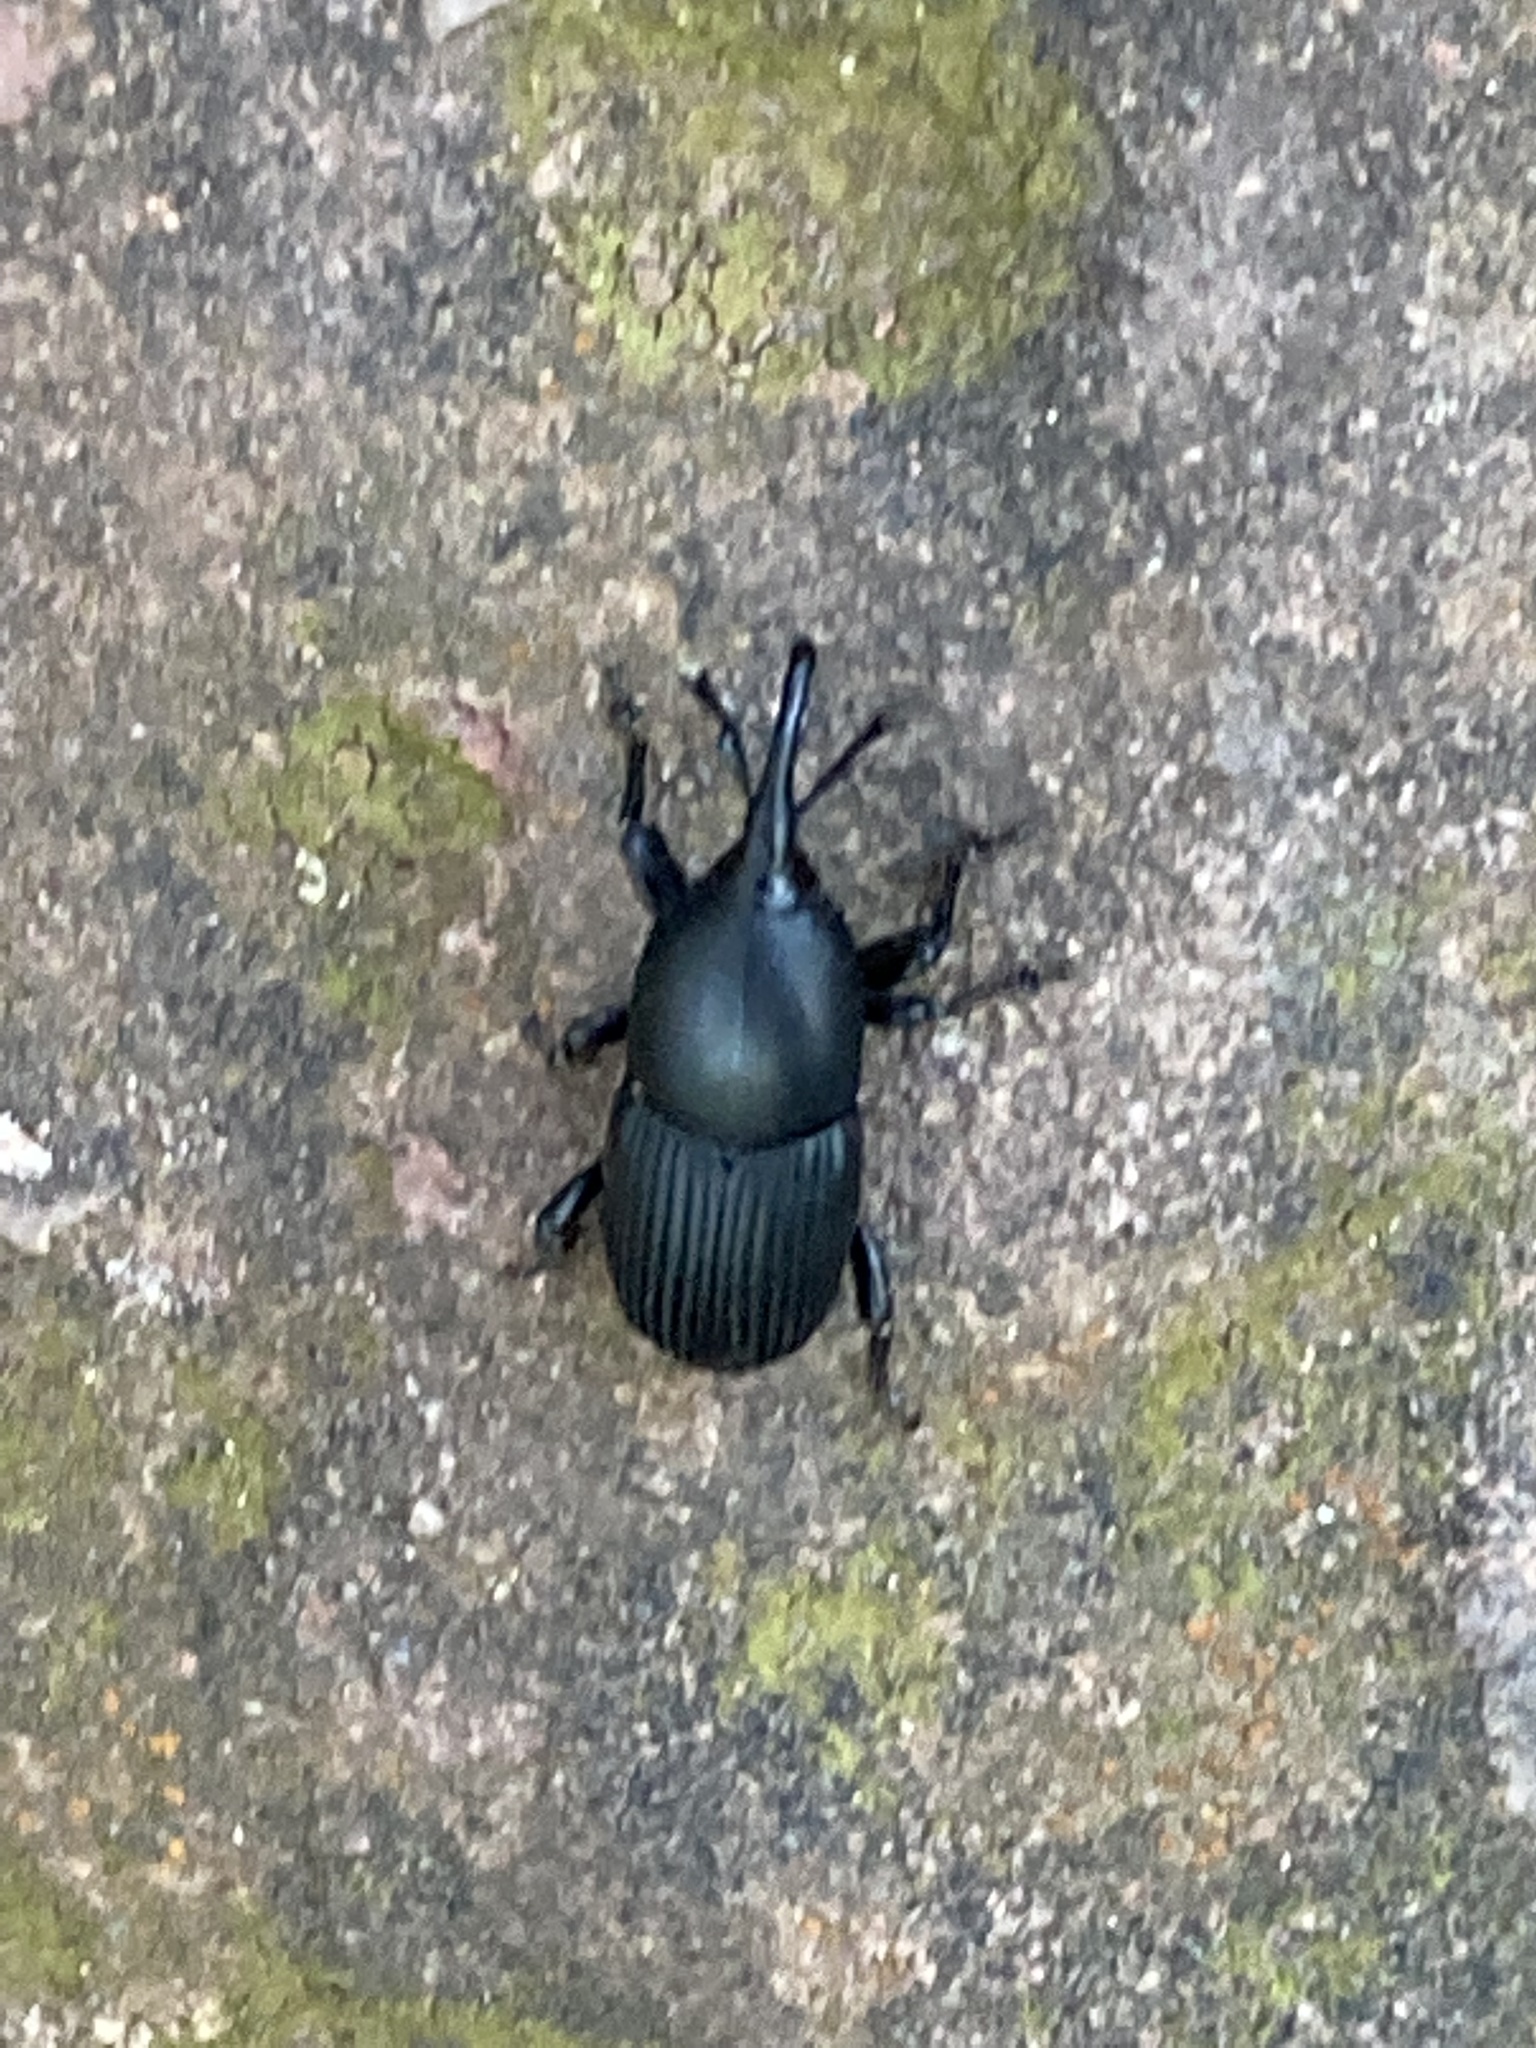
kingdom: Animalia
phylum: Arthropoda
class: Insecta
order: Coleoptera
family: Dryophthoridae
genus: Scyphophorus
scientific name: Scyphophorus acupunctatus
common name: Weevil
